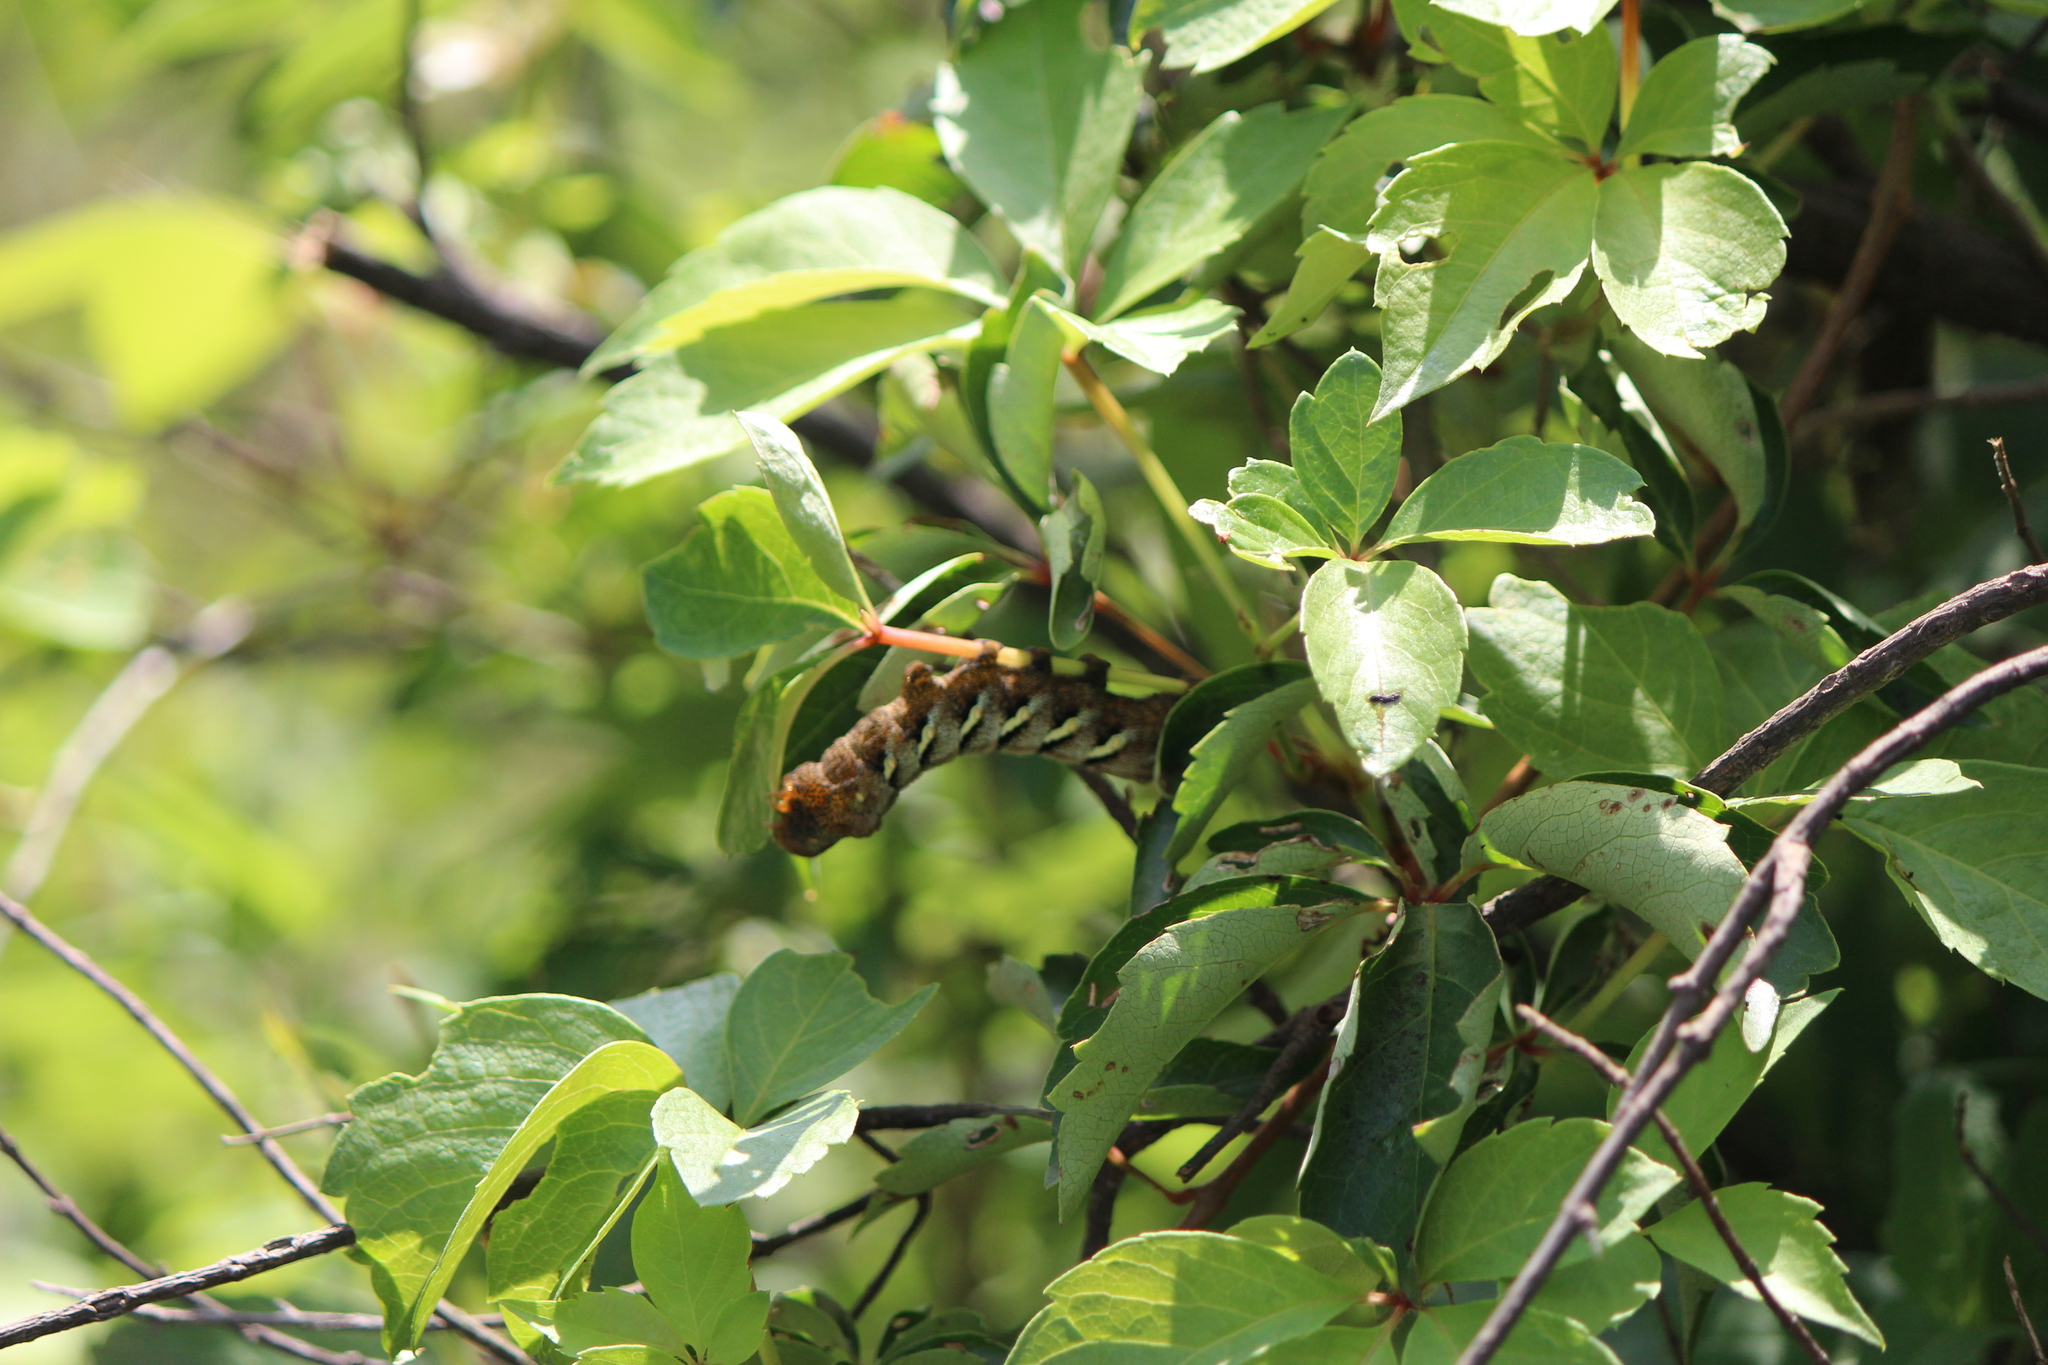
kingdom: Animalia
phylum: Arthropoda
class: Insecta
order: Lepidoptera
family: Sphingidae
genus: Eumorpha
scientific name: Eumorpha typhon
